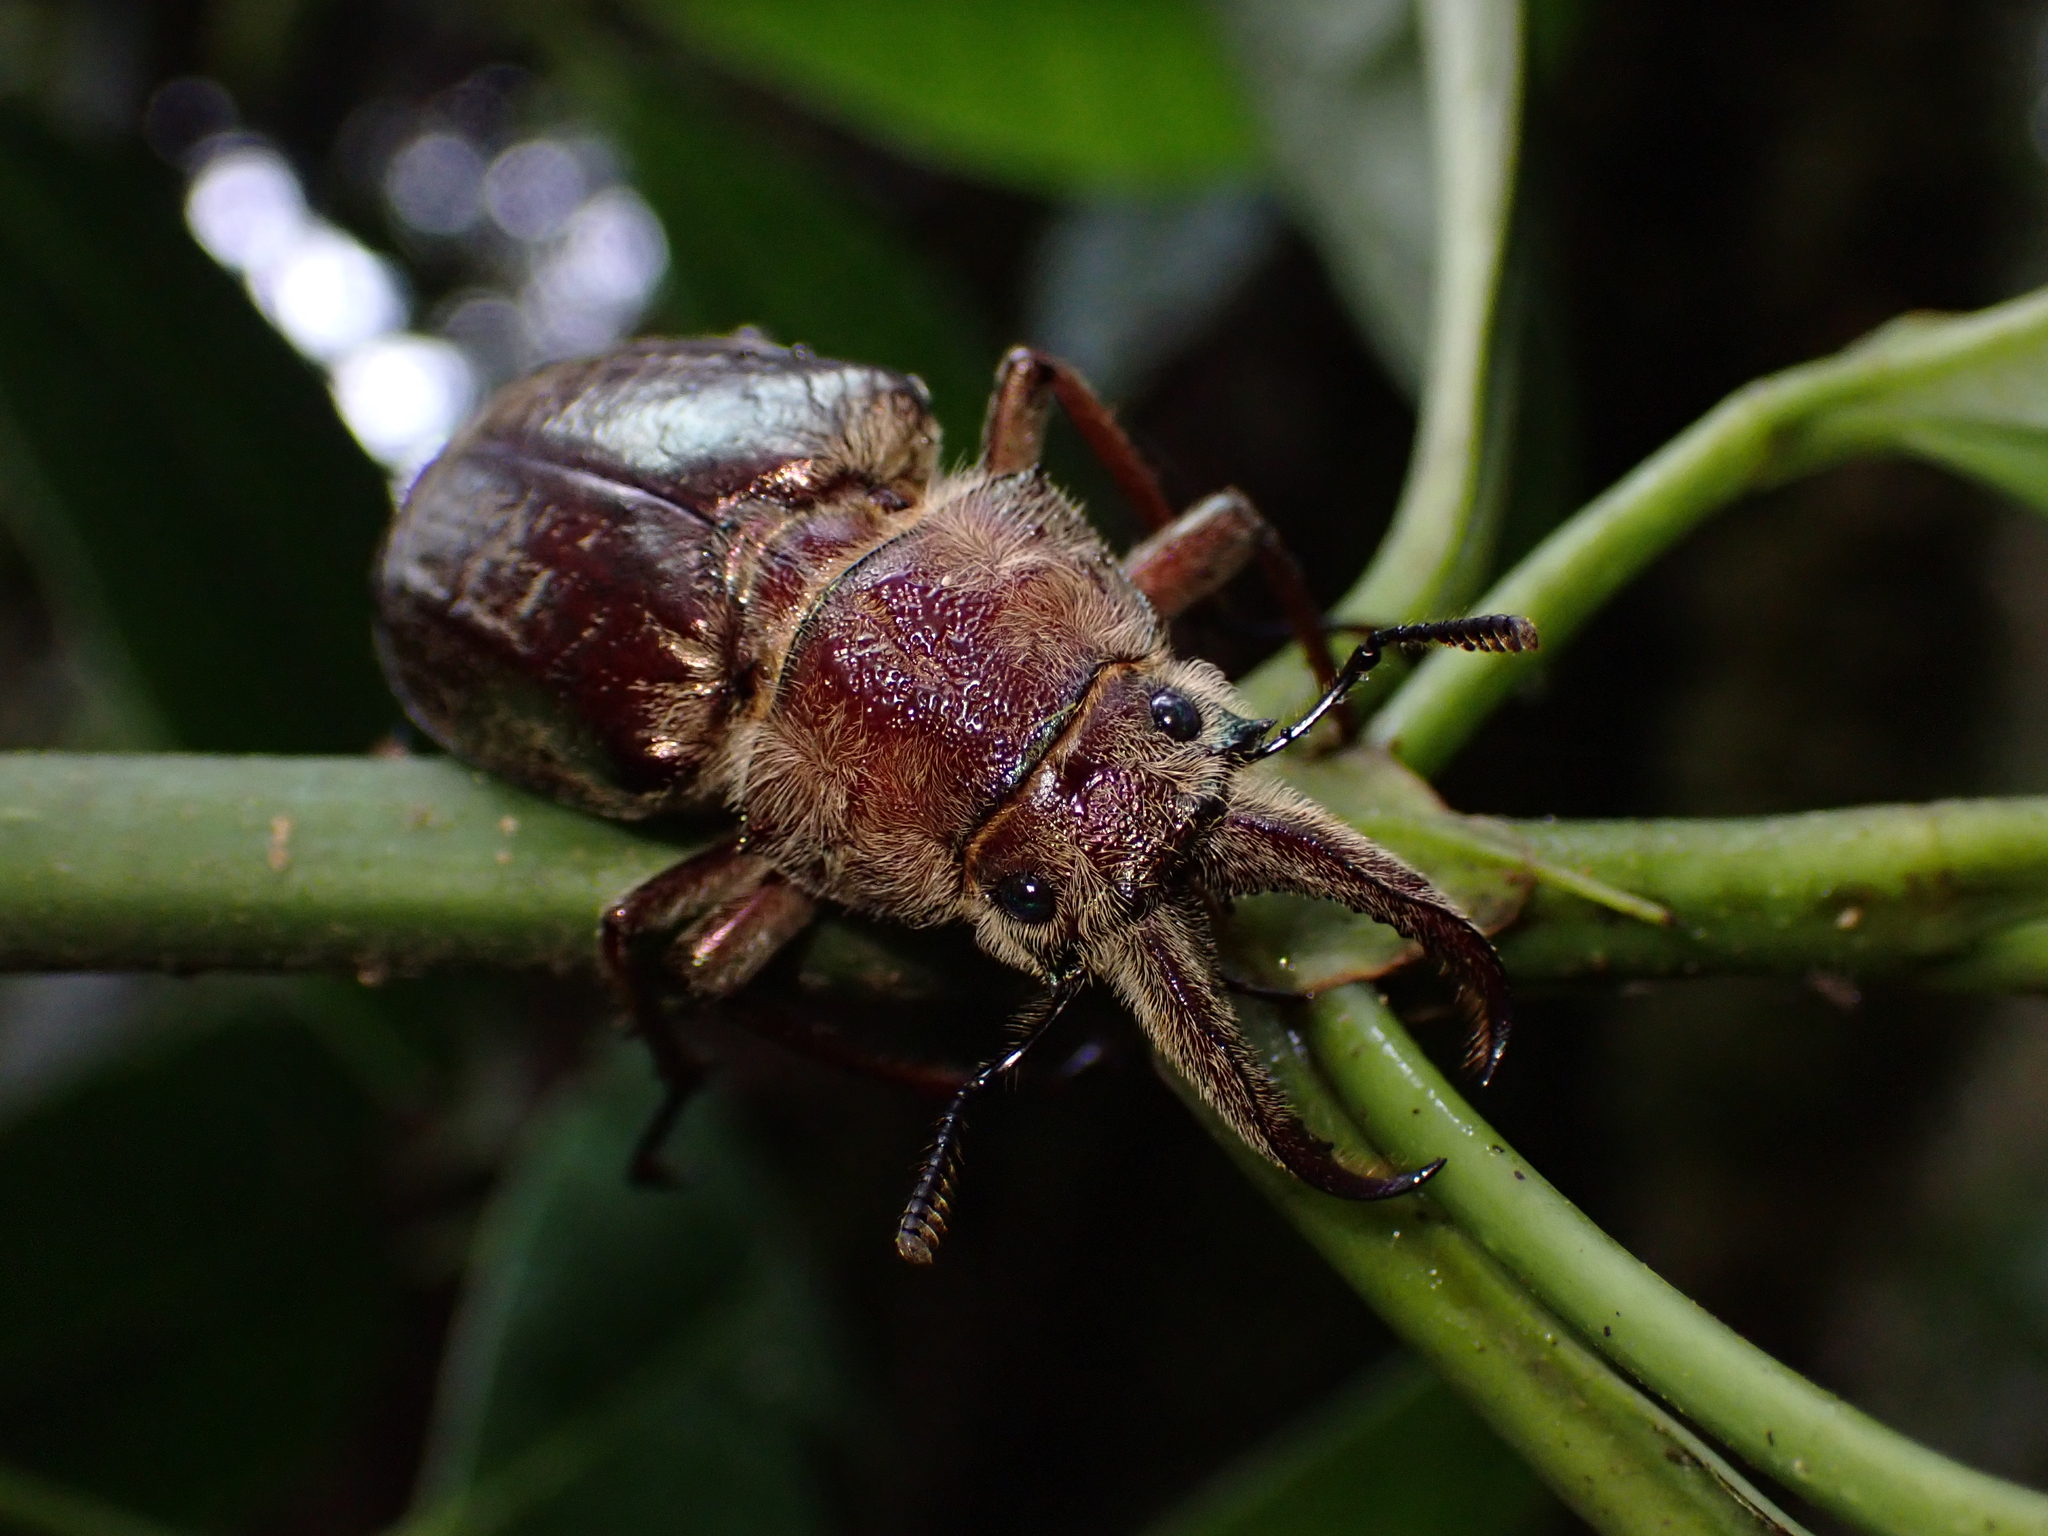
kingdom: Animalia
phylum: Arthropoda
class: Insecta
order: Coleoptera
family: Lucanidae
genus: Sphaenognathus
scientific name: Sphaenognathus giganteus
